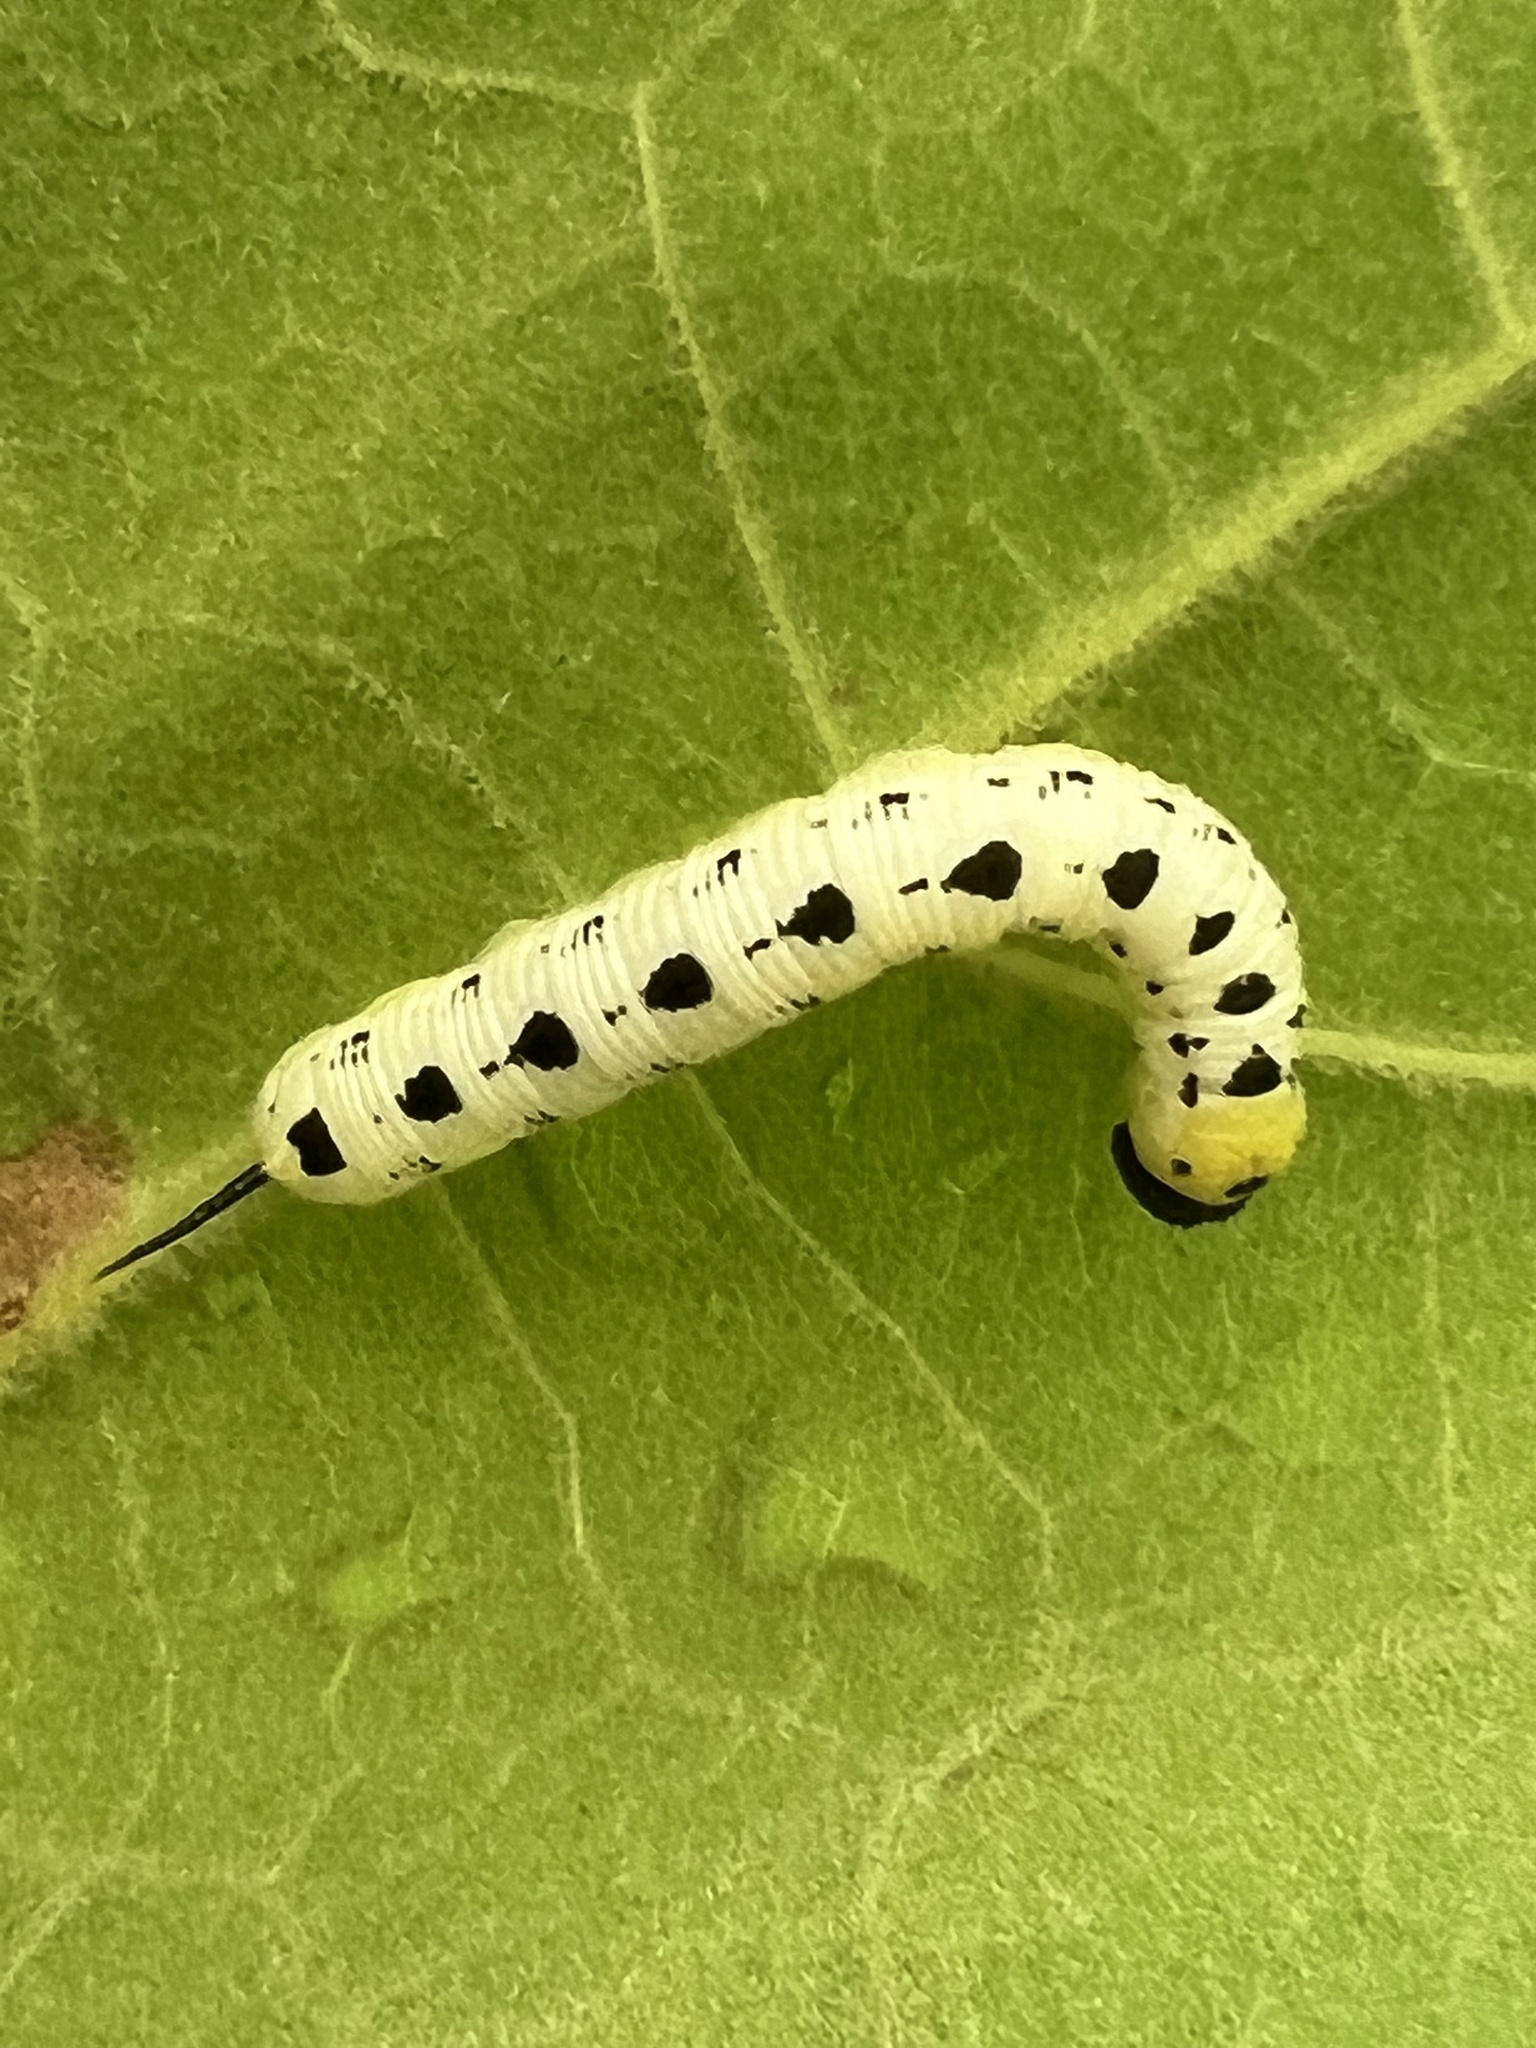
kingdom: Animalia
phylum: Arthropoda
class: Insecta
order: Lepidoptera
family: Sphingidae
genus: Ceratomia
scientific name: Ceratomia catalpae
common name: Catalpa hornworm
